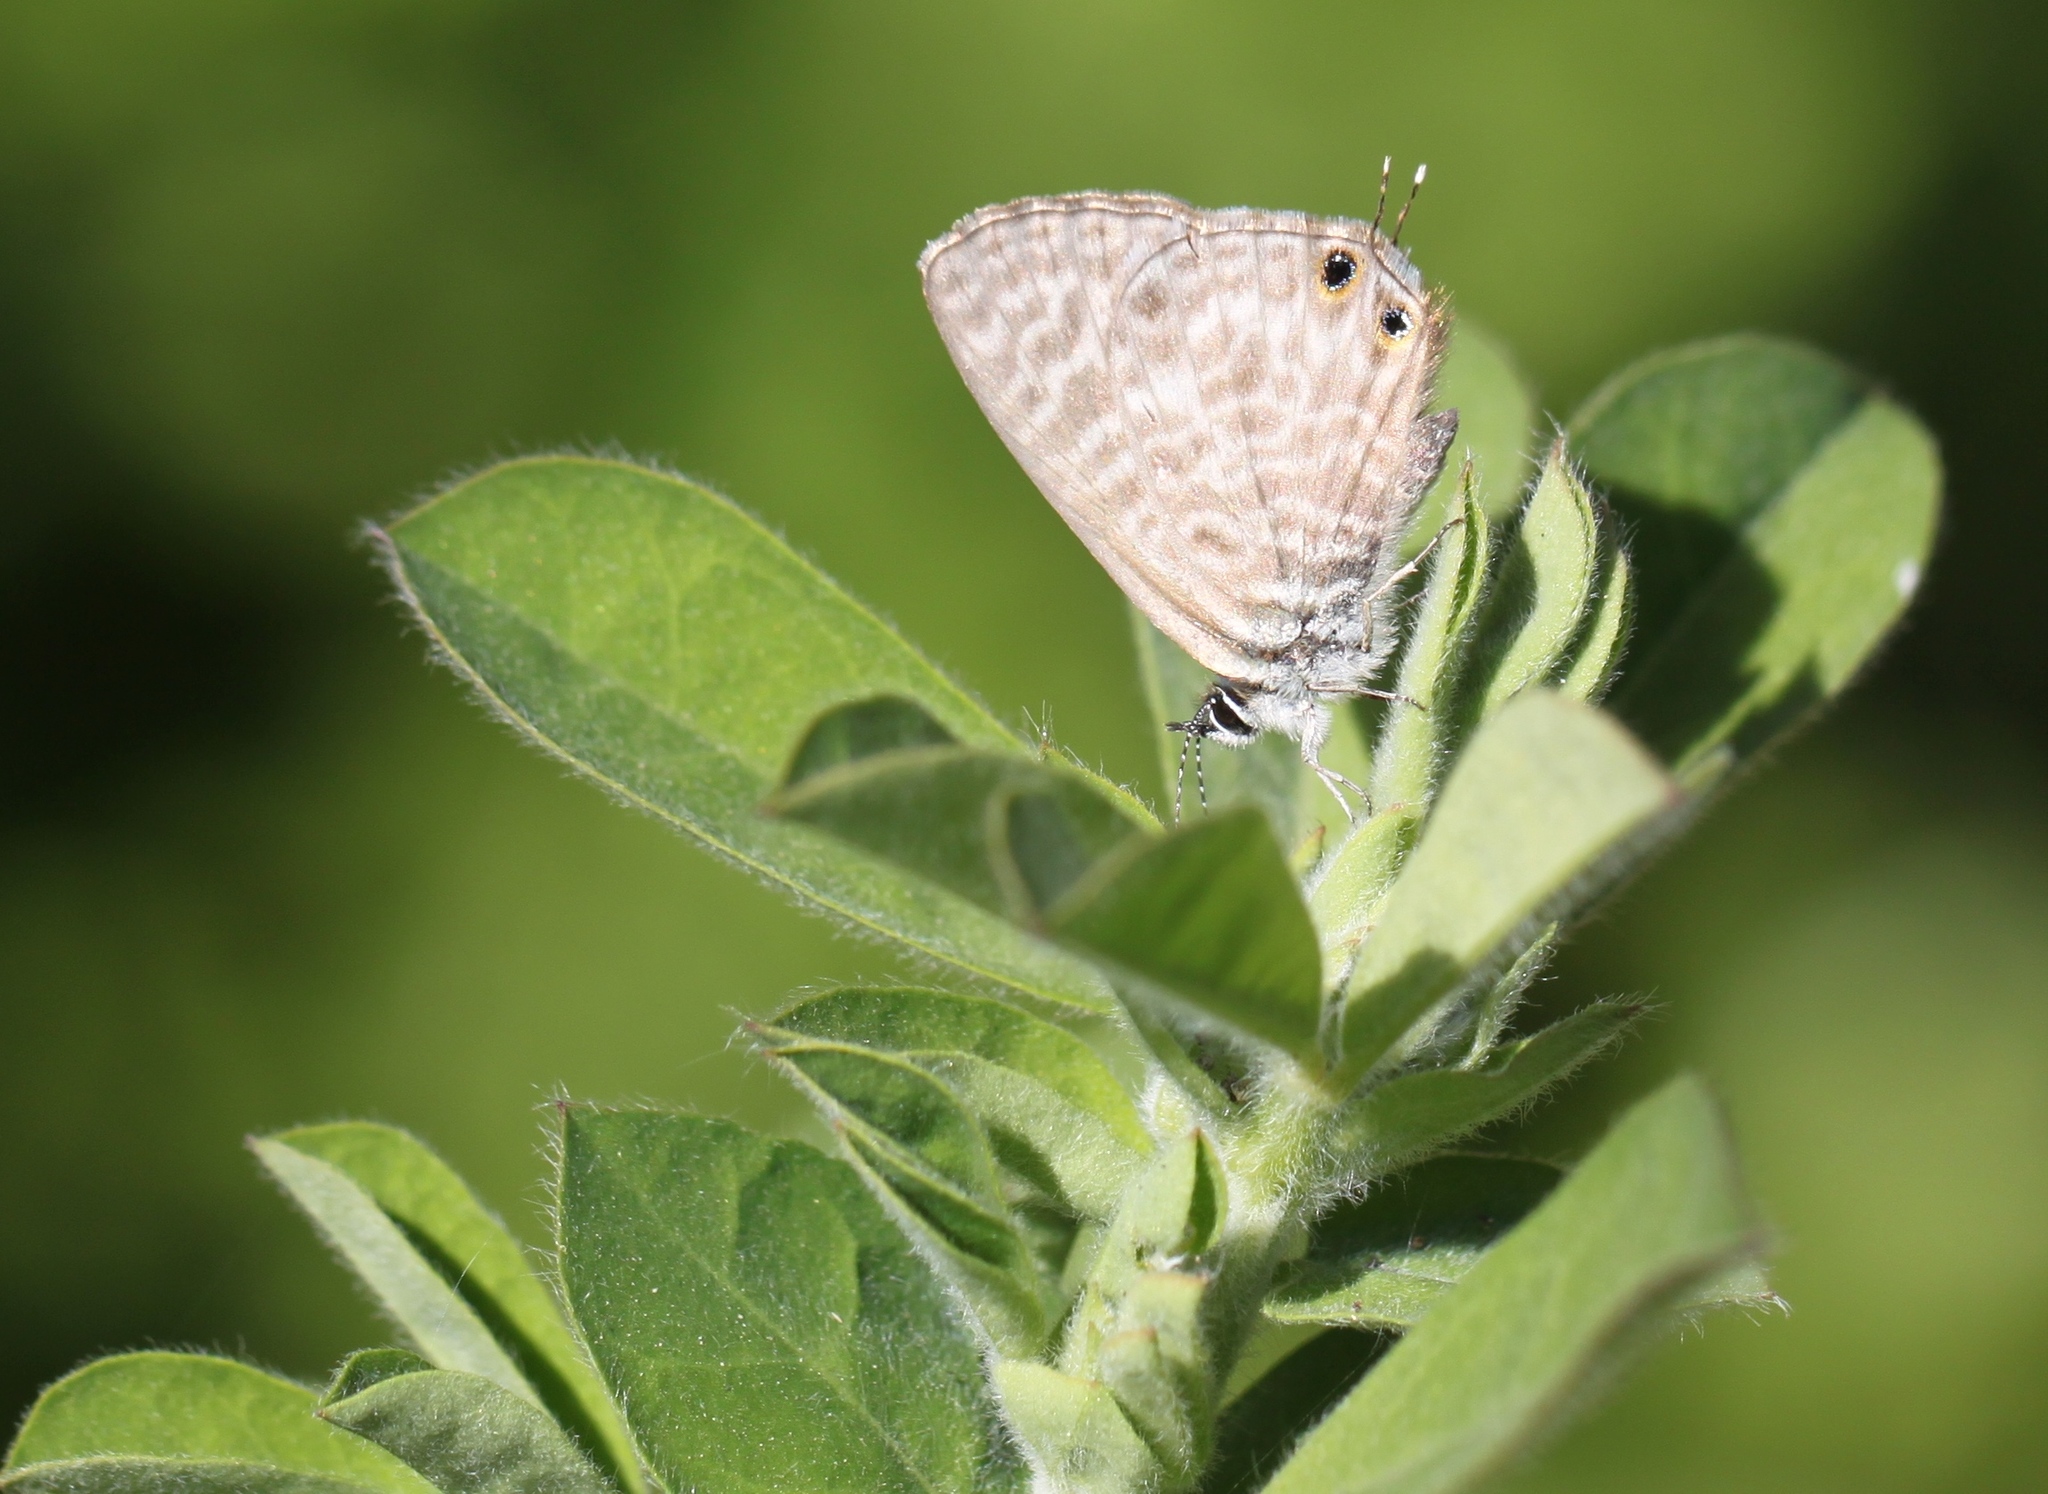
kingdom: Animalia
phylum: Arthropoda
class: Insecta
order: Lepidoptera
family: Lycaenidae
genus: Leptotes
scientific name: Leptotes pirithous
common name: Lang's short-tailed blue
